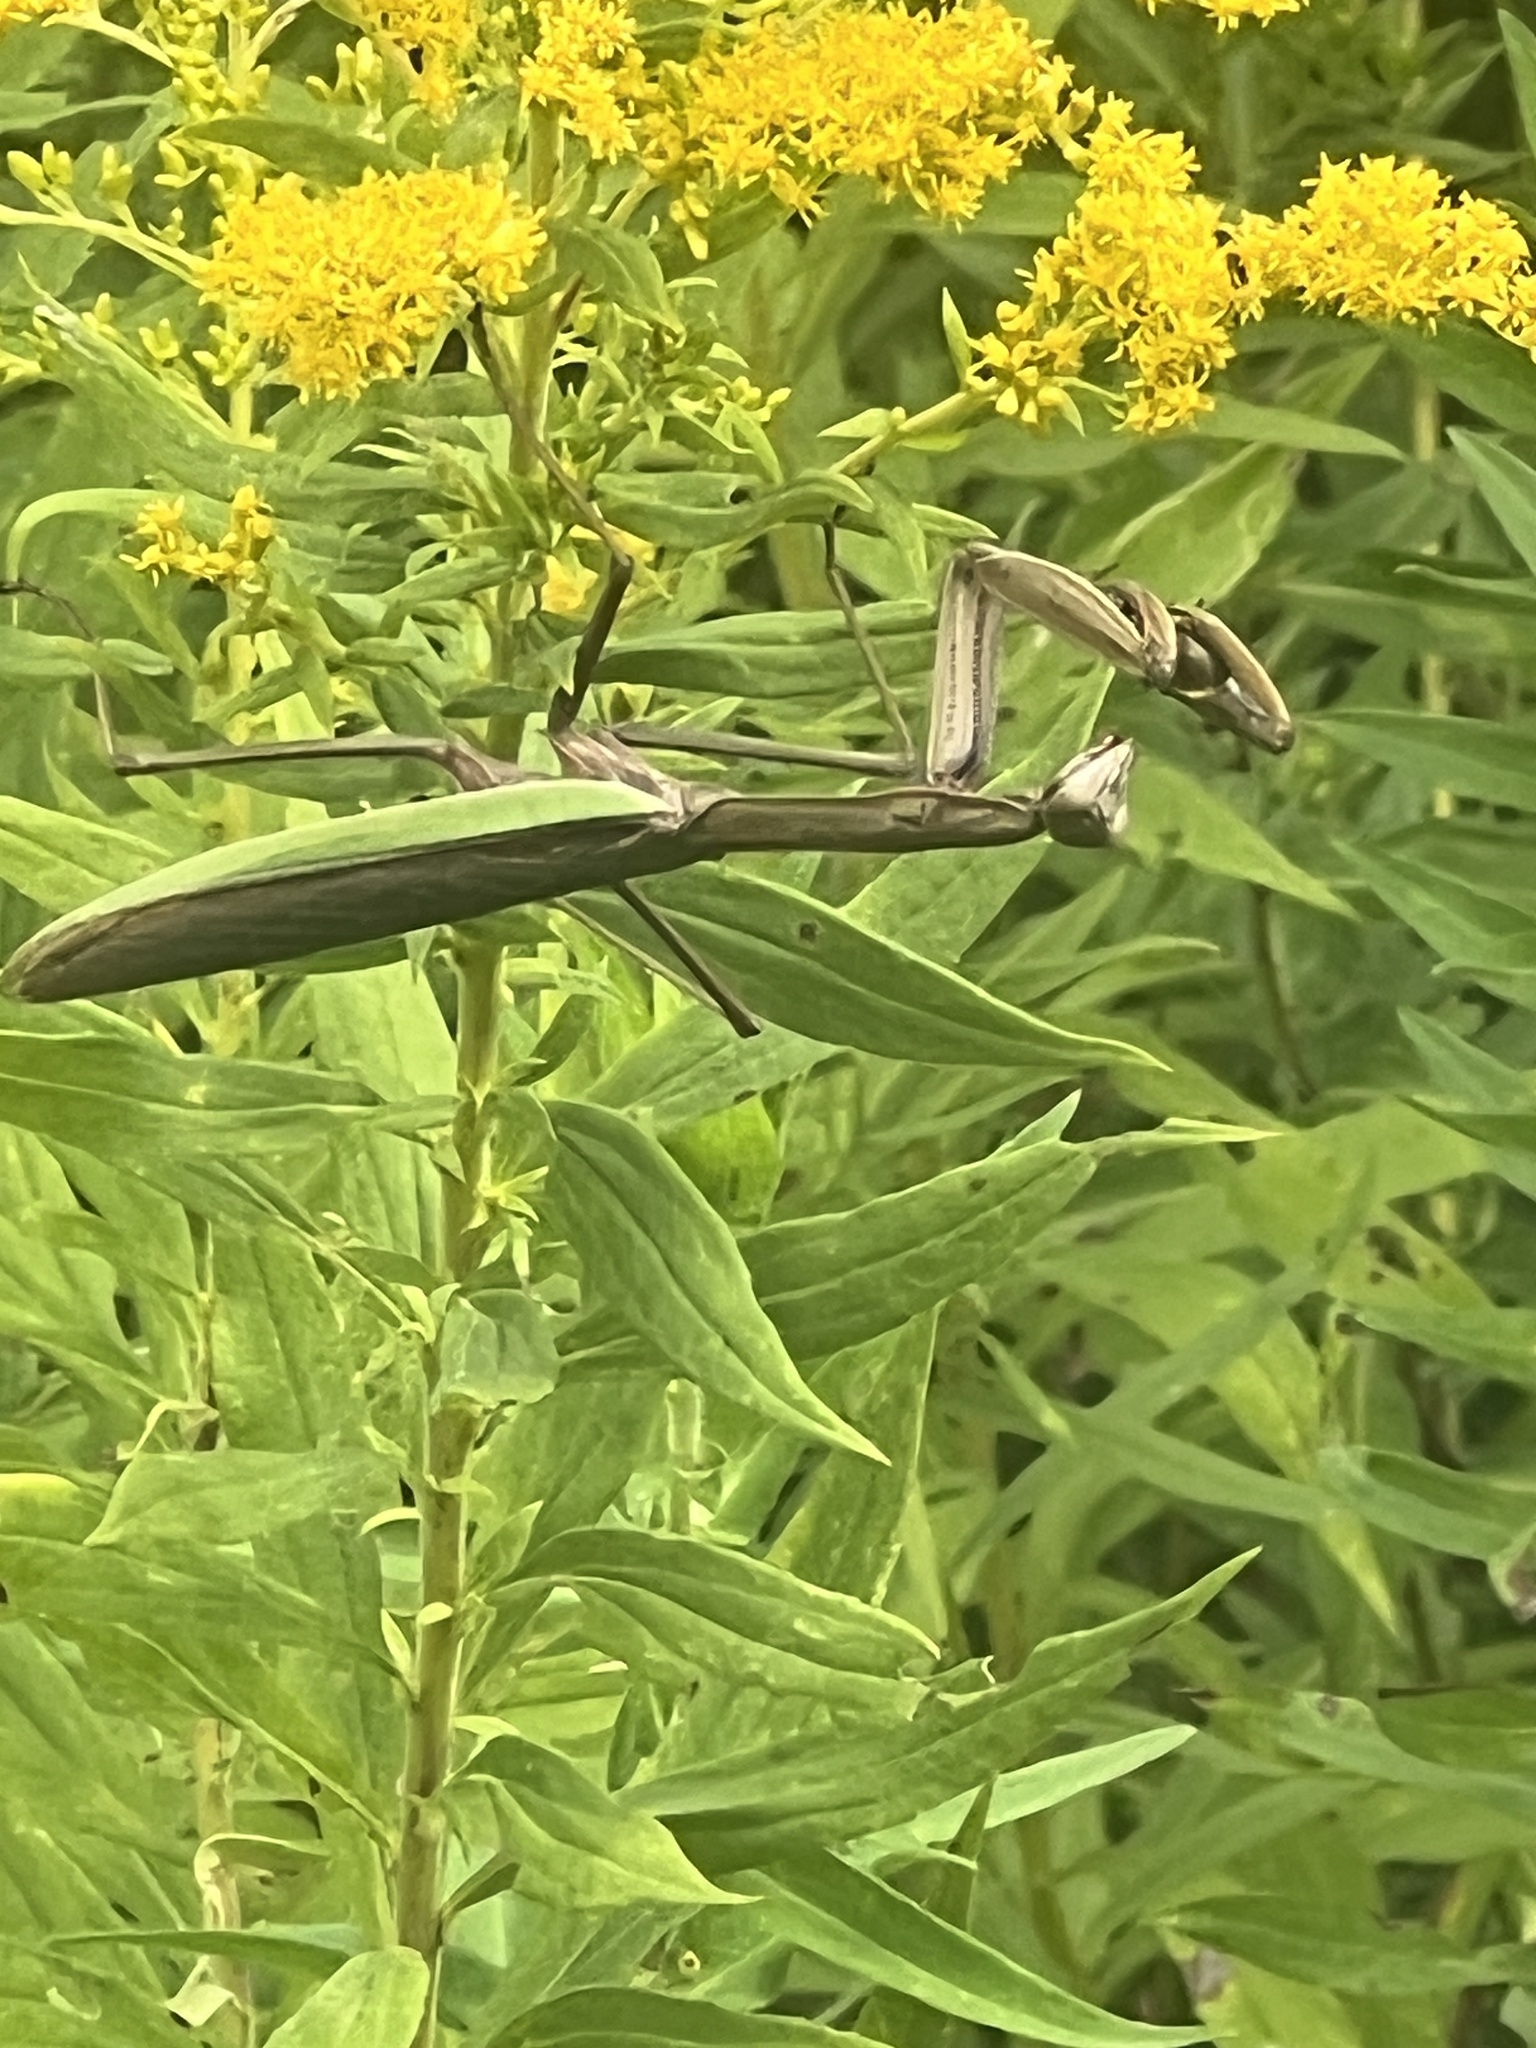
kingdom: Animalia
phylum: Arthropoda
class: Insecta
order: Mantodea
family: Mantidae
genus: Tenodera
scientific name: Tenodera sinensis
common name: Chinese mantis
